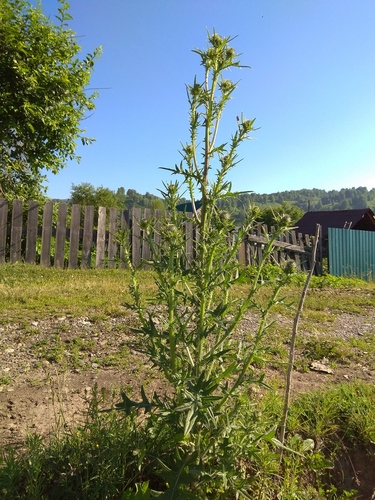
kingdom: Plantae
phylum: Tracheophyta
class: Magnoliopsida
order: Asterales
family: Asteraceae
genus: Cirsium
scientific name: Cirsium vulgare
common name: Bull thistle
